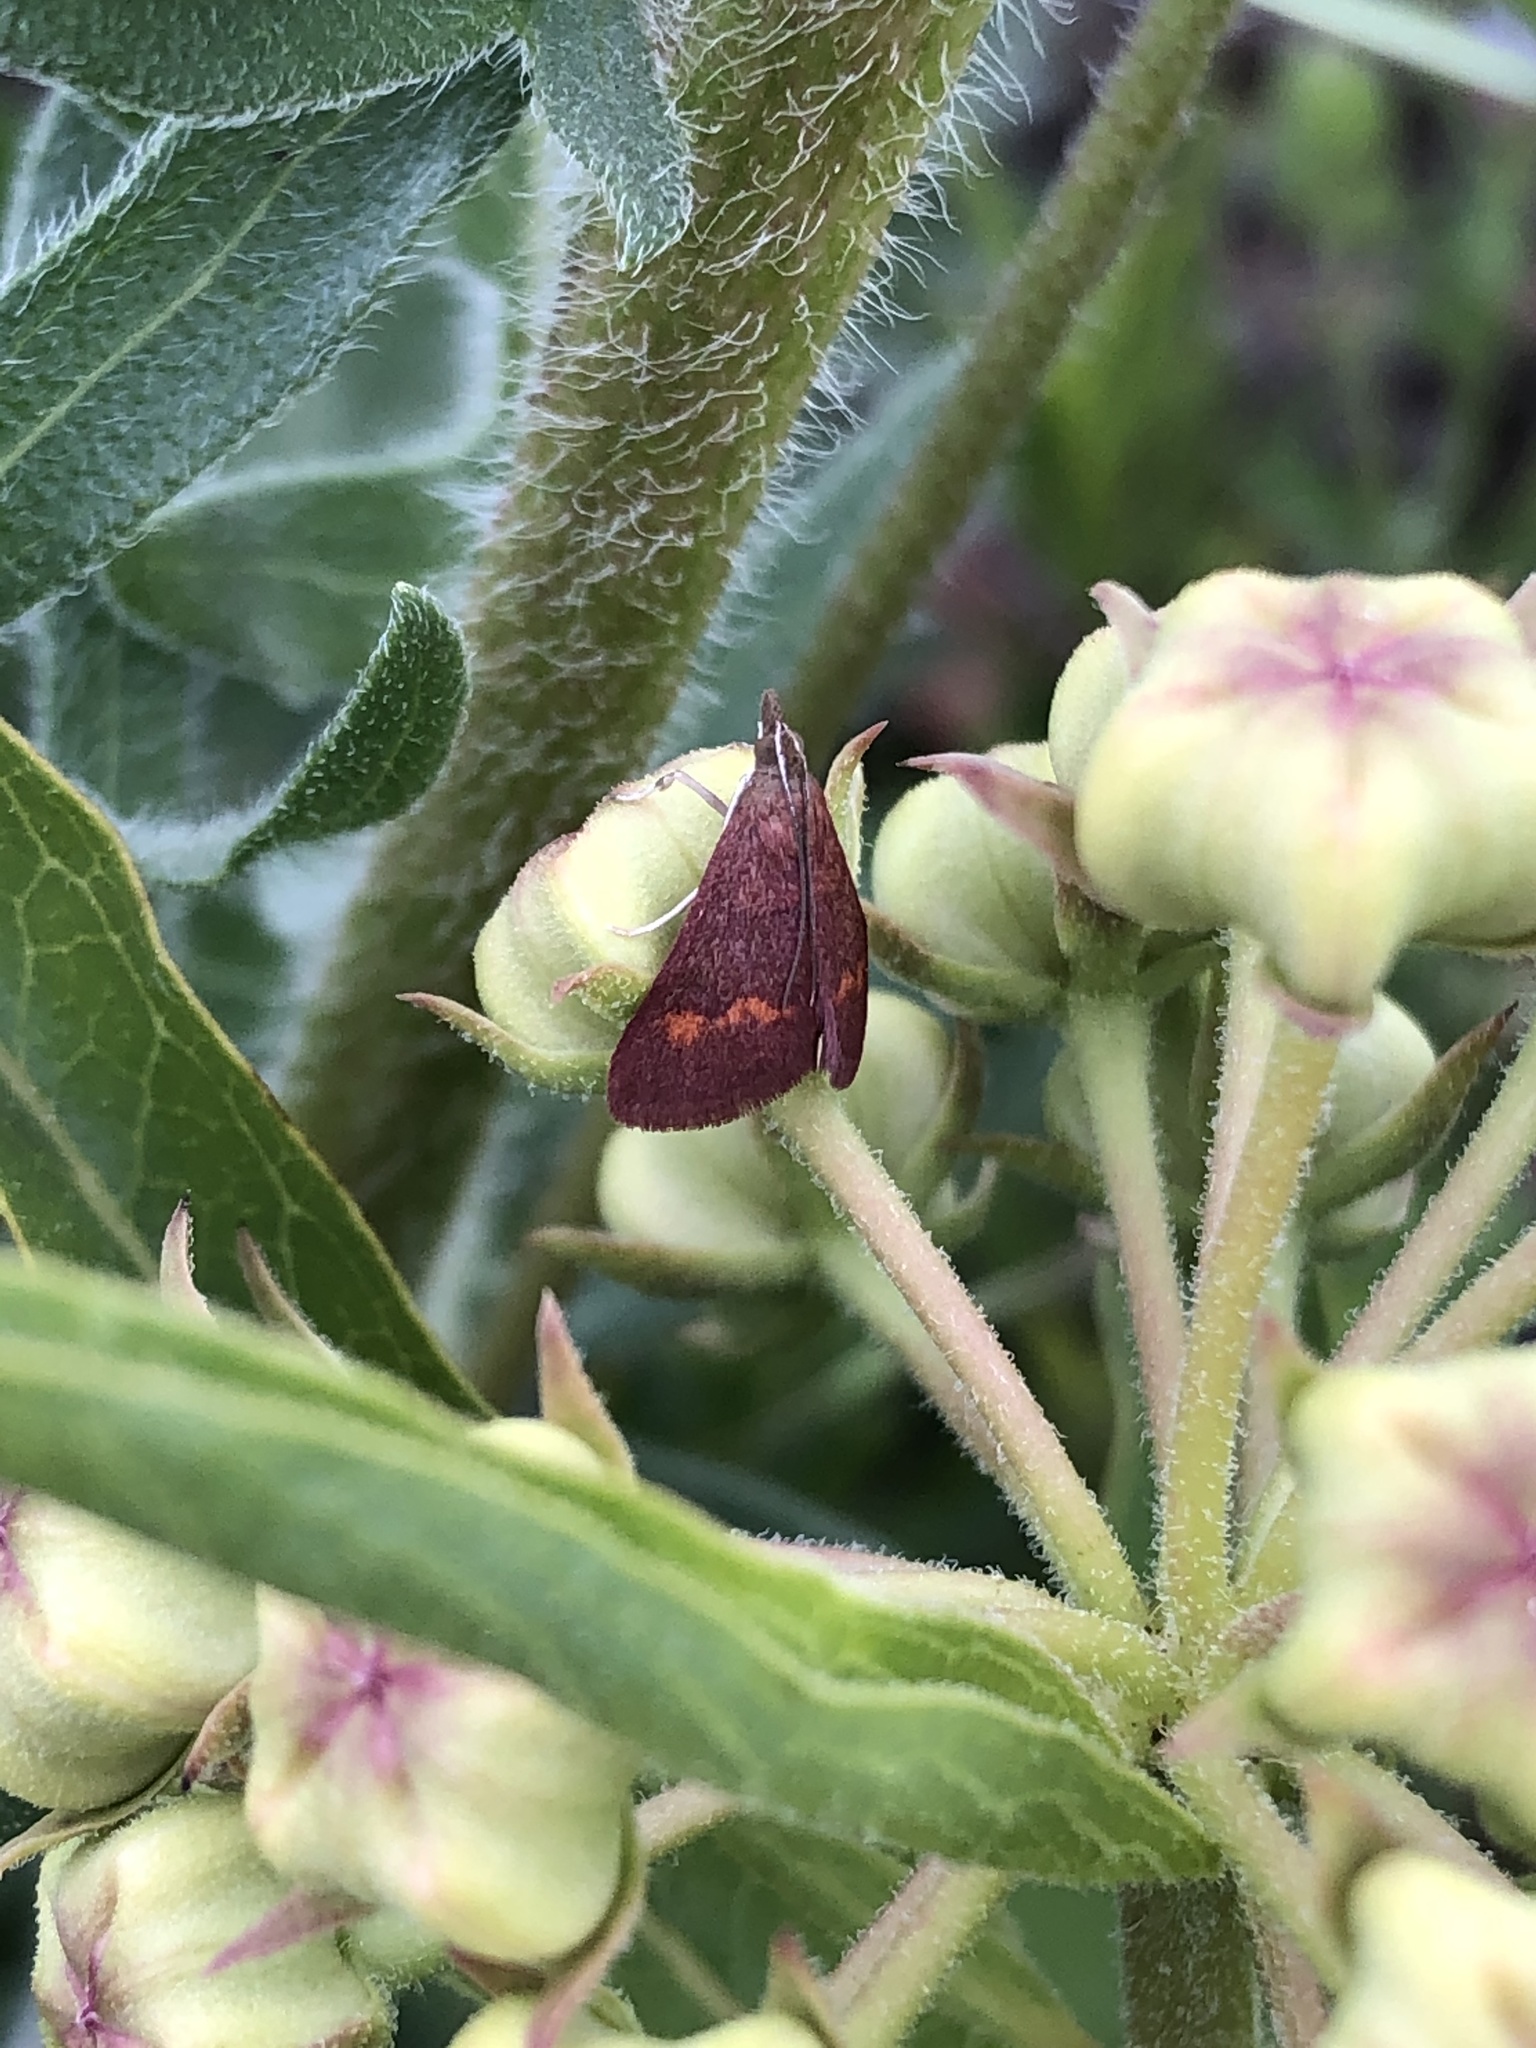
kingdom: Animalia
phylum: Arthropoda
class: Insecta
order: Lepidoptera
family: Crambidae
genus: Pyrausta
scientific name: Pyrausta pseuderosnealis
